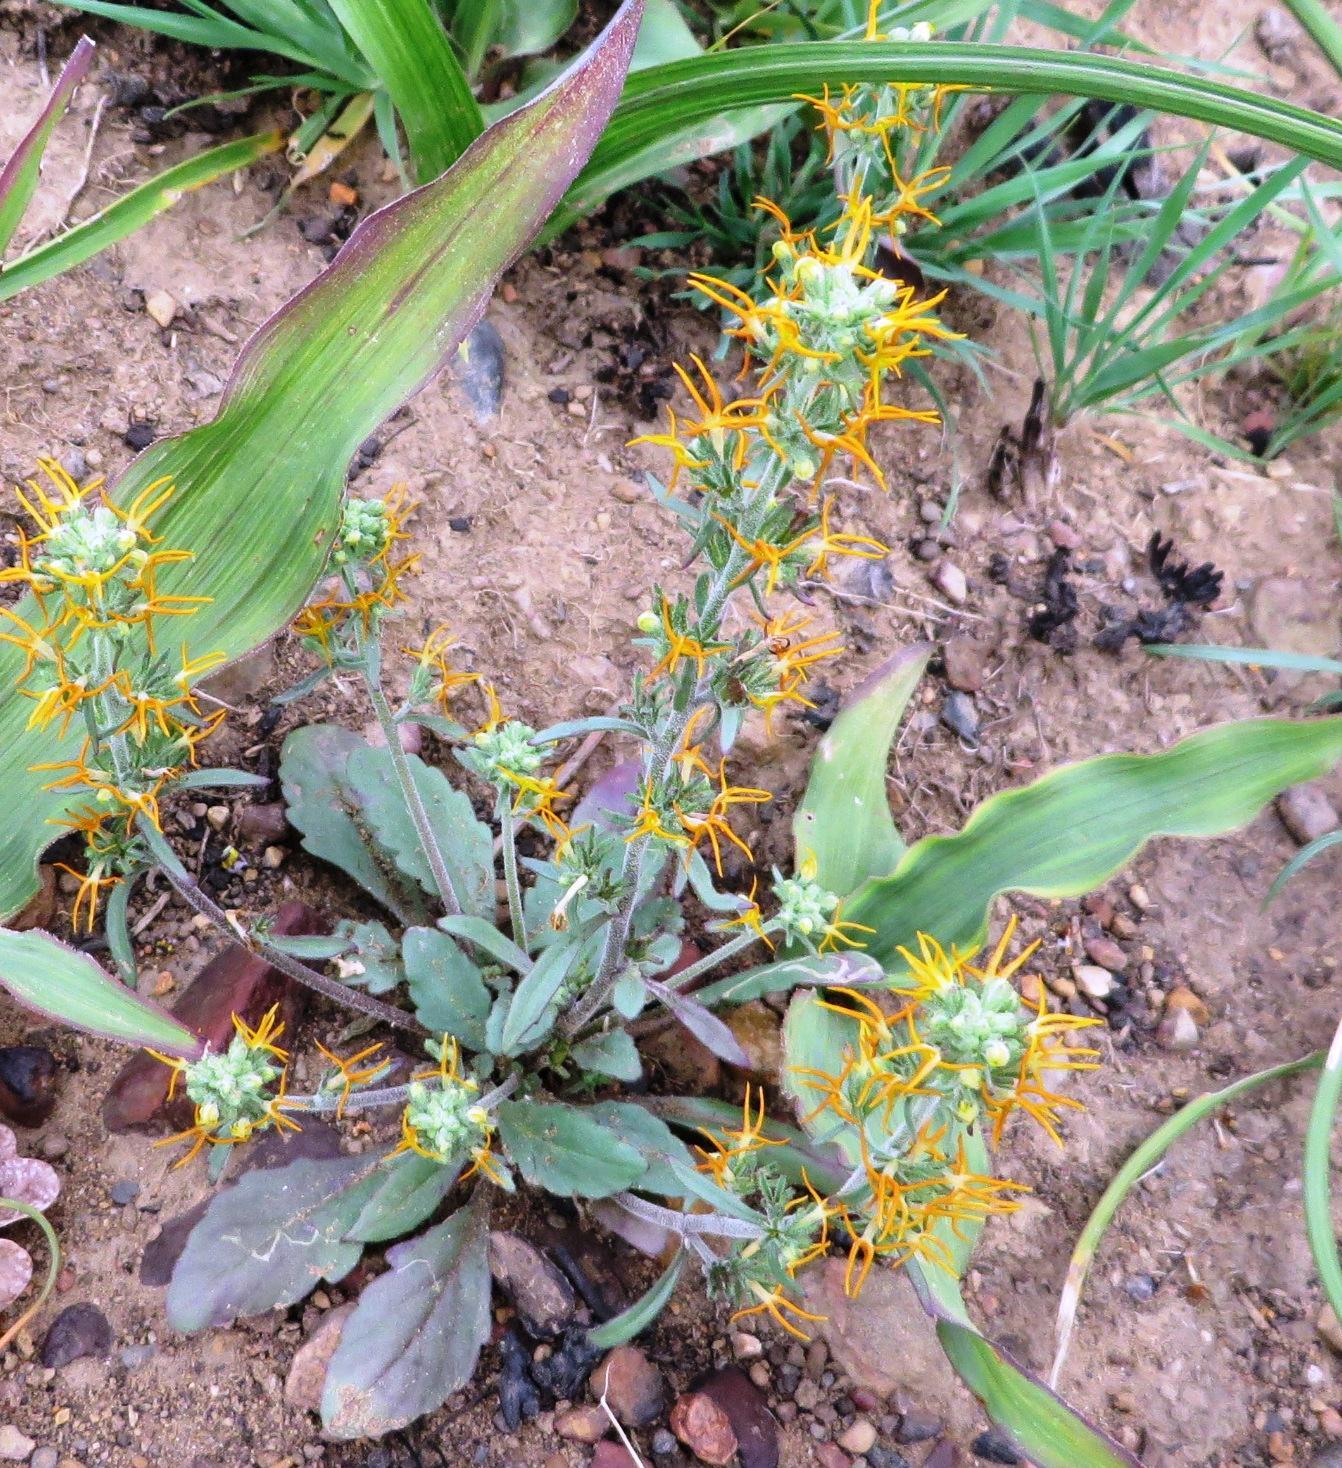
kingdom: Plantae
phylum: Tracheophyta
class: Magnoliopsida
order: Lamiales
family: Scrophulariaceae
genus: Manulea
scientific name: Manulea cheiranthus
